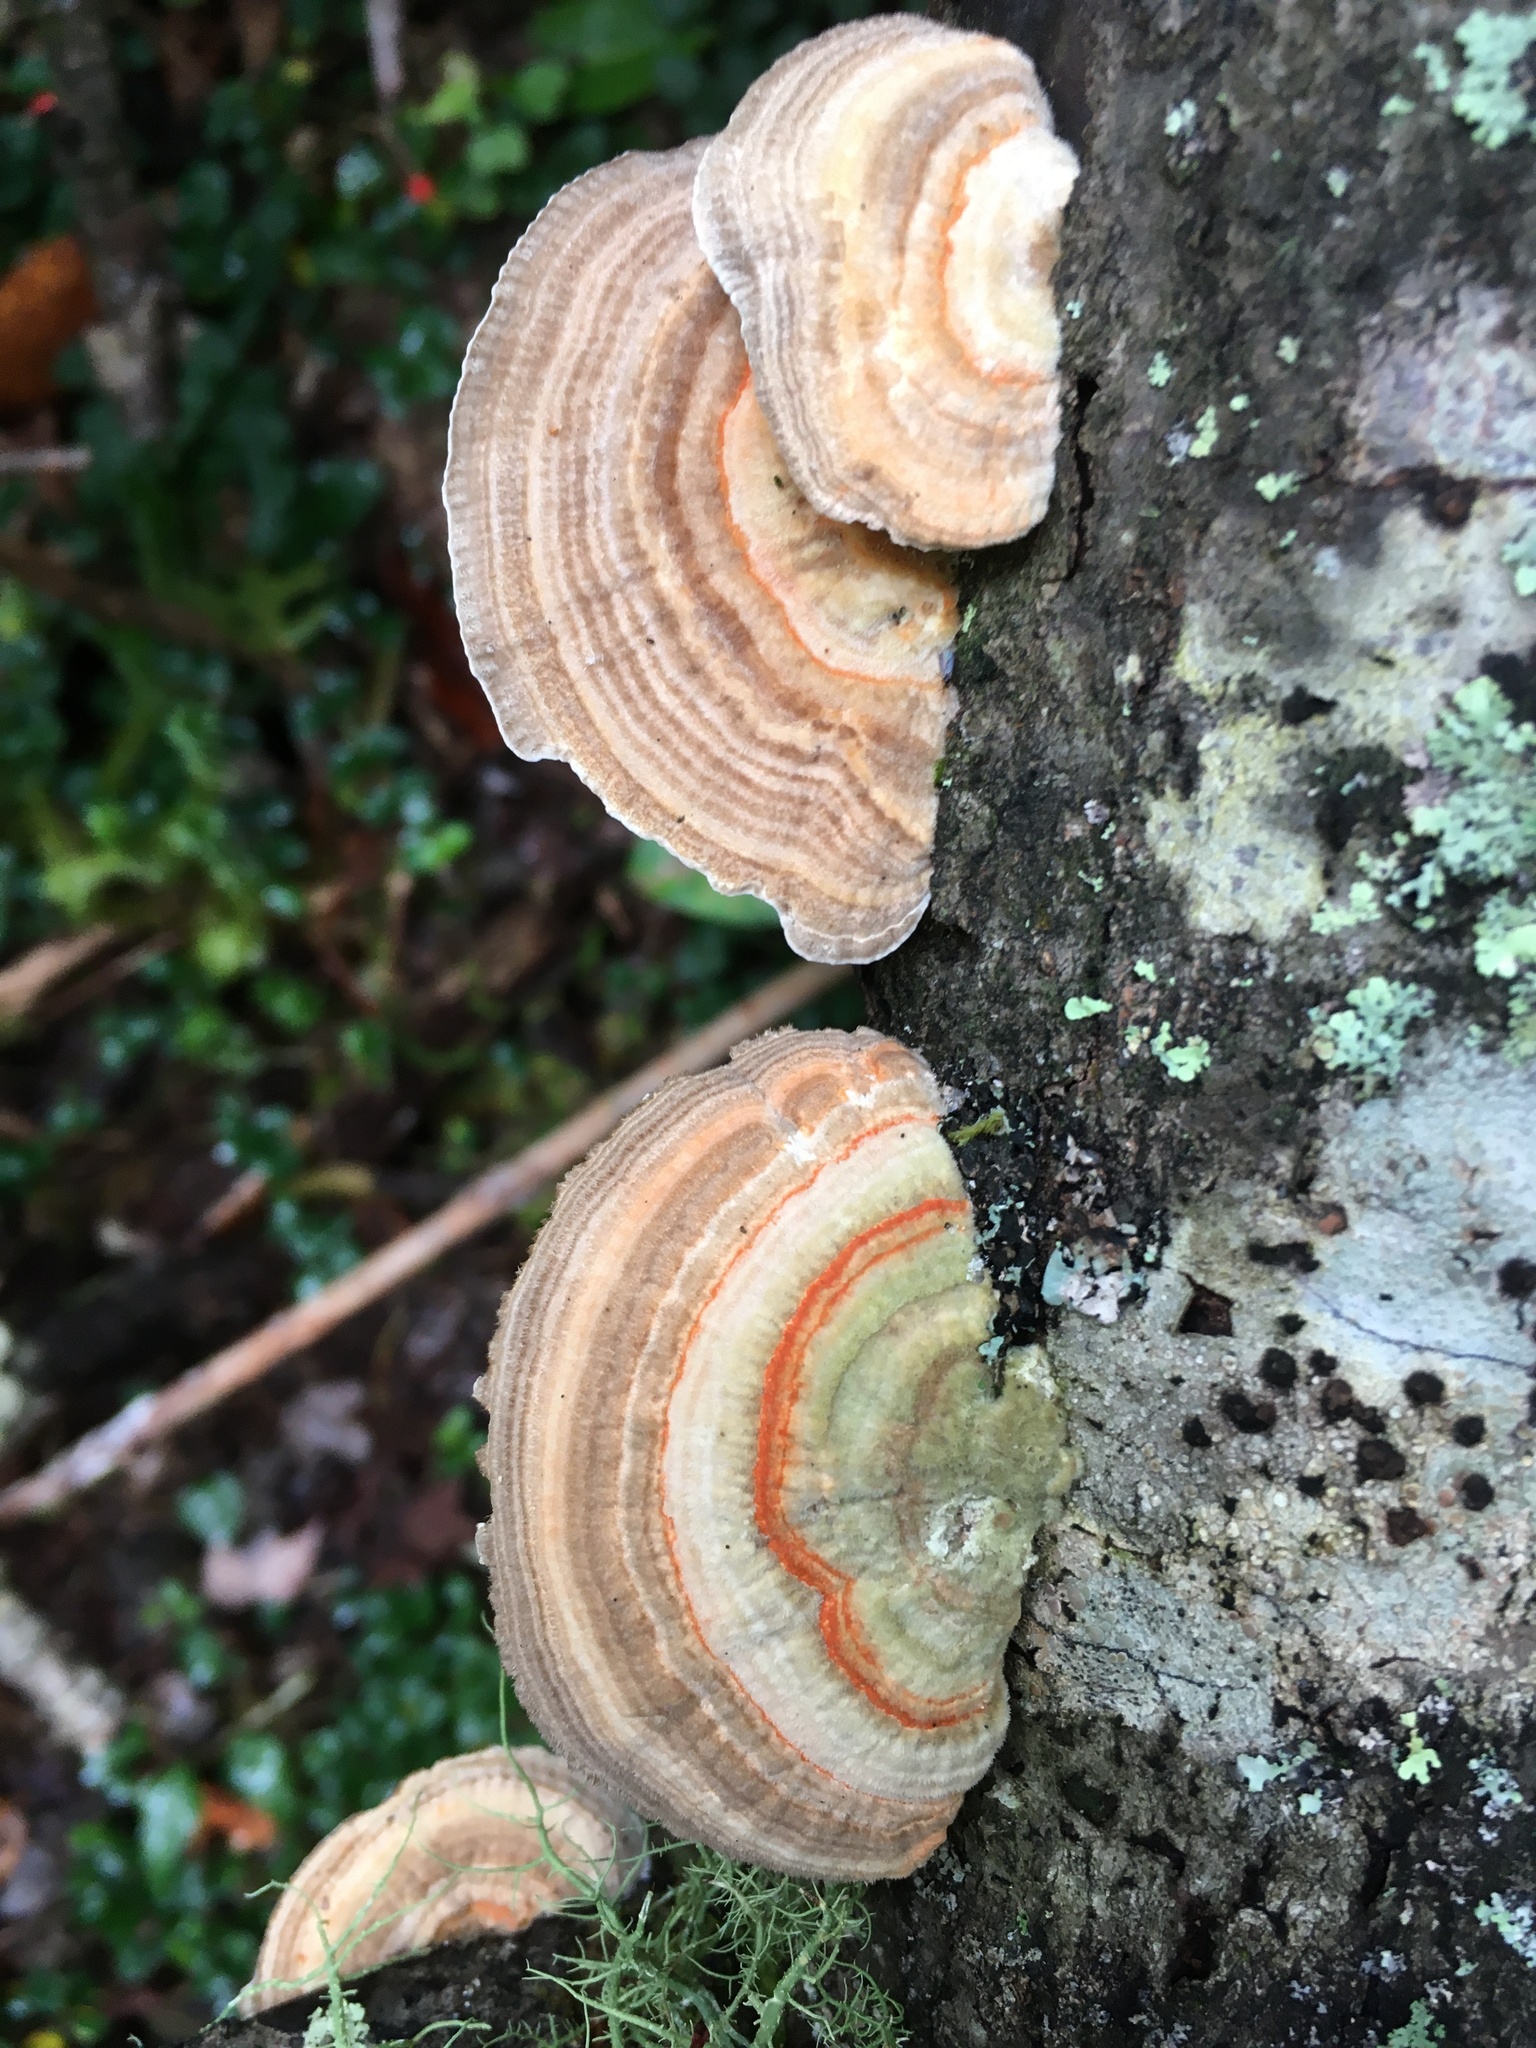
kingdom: Fungi
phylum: Basidiomycota
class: Agaricomycetes
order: Polyporales
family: Polyporaceae
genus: Lenzites
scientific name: Lenzites betulinus
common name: Birch mazegill
